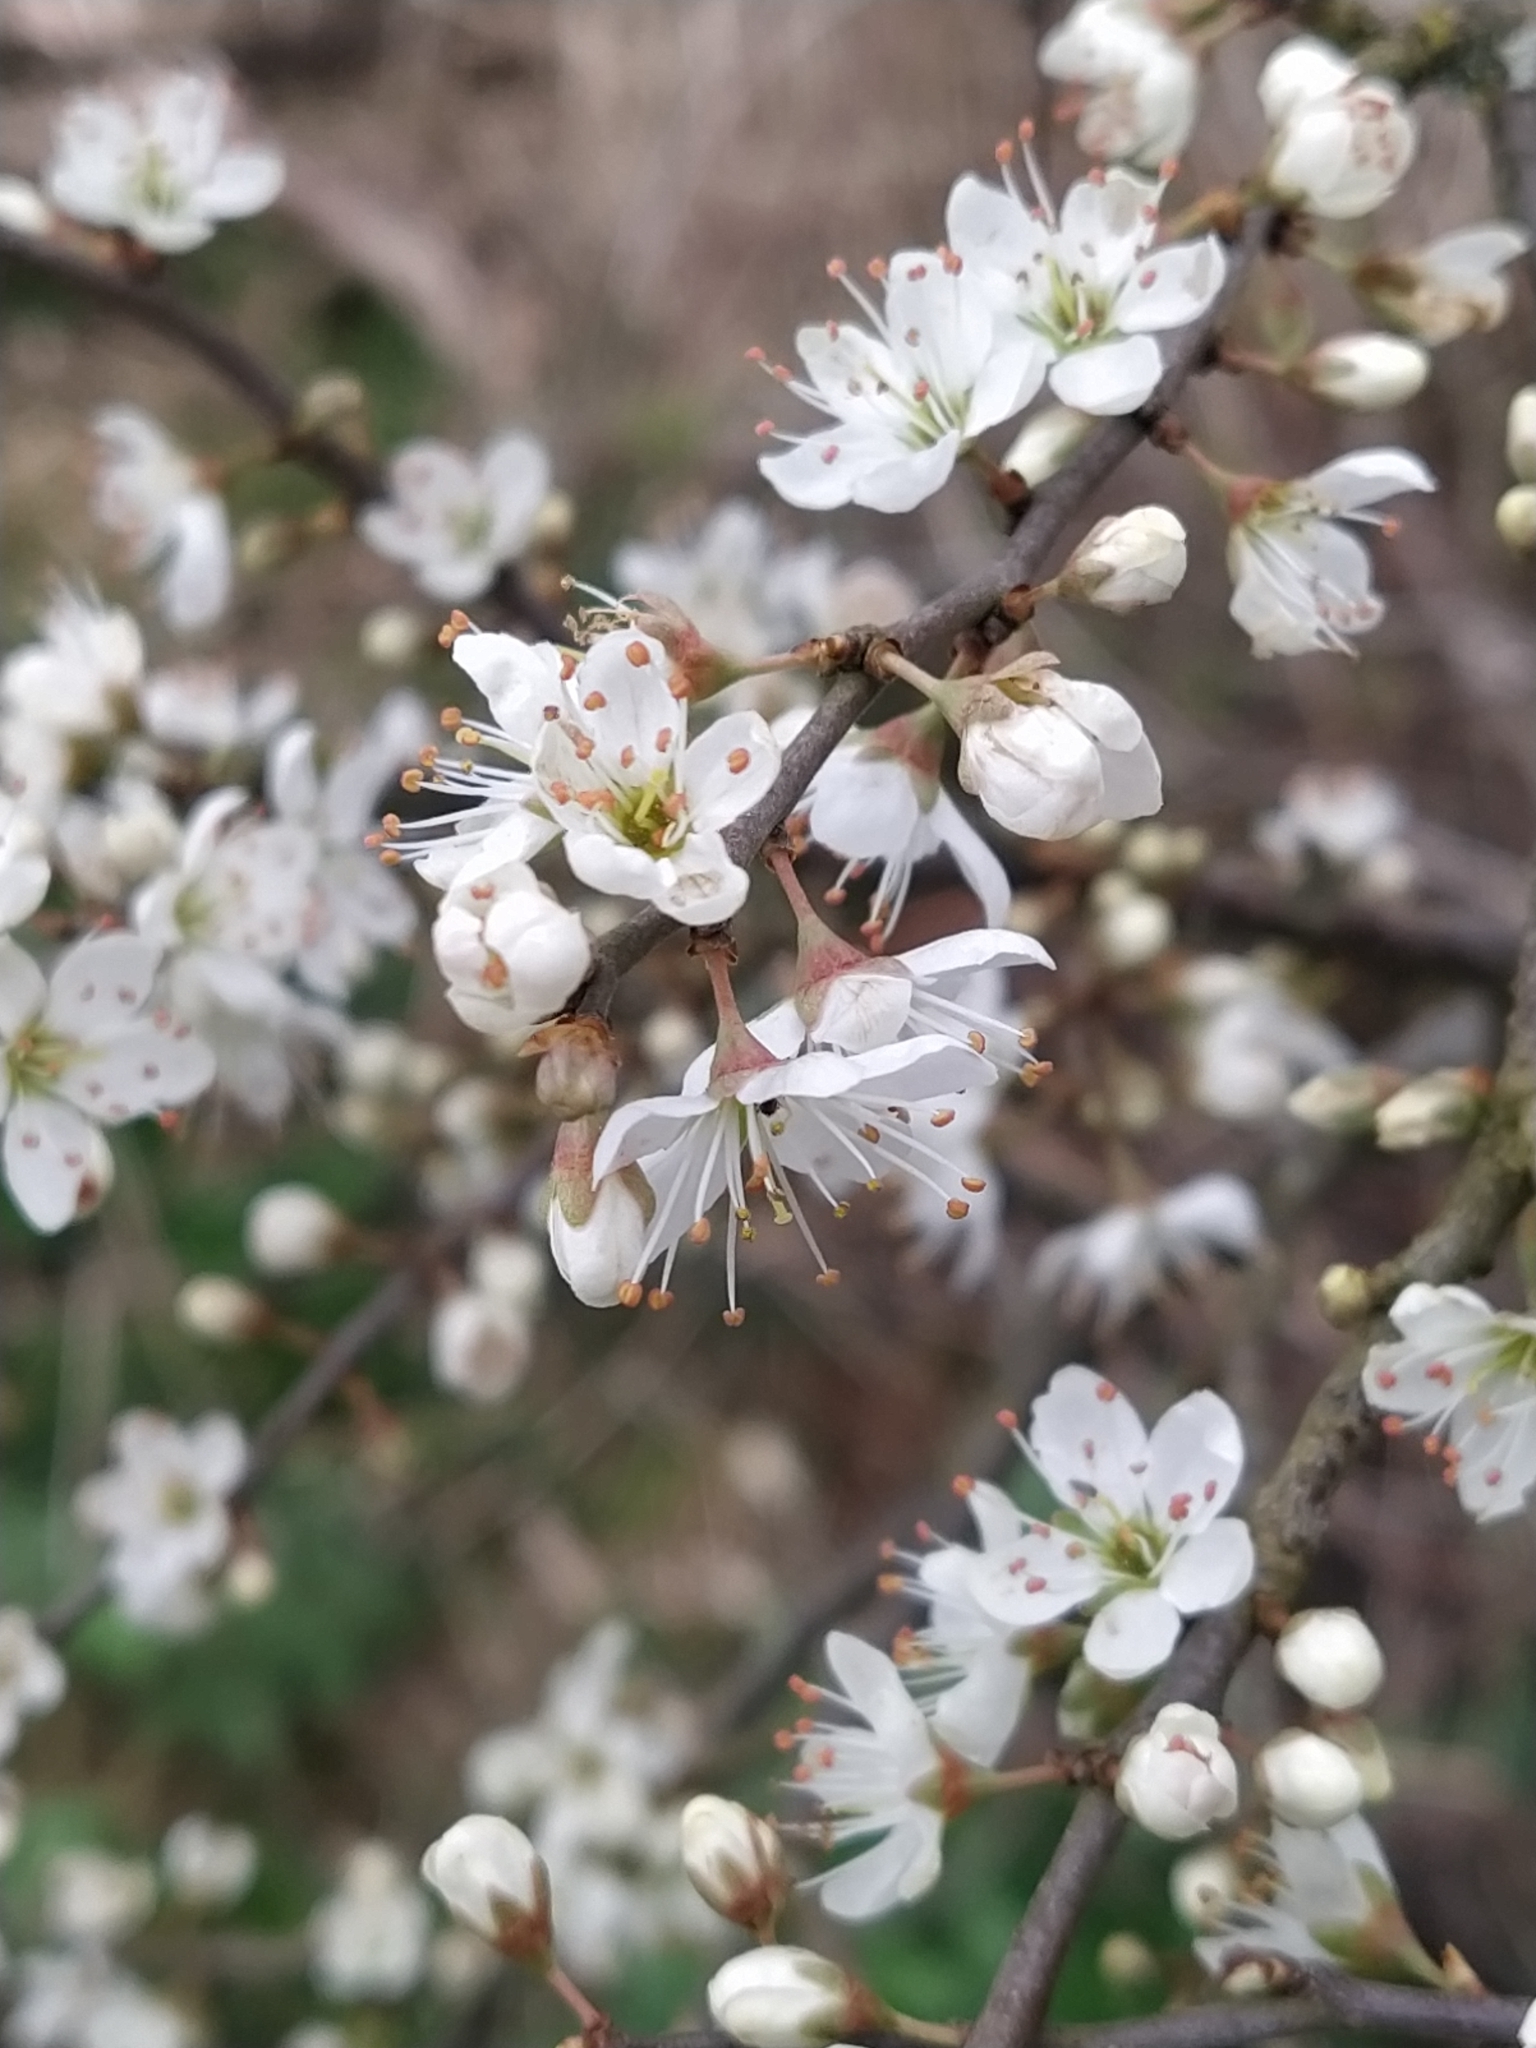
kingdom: Plantae
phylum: Tracheophyta
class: Magnoliopsida
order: Rosales
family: Rosaceae
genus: Prunus
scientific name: Prunus spinosa
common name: Blackthorn
